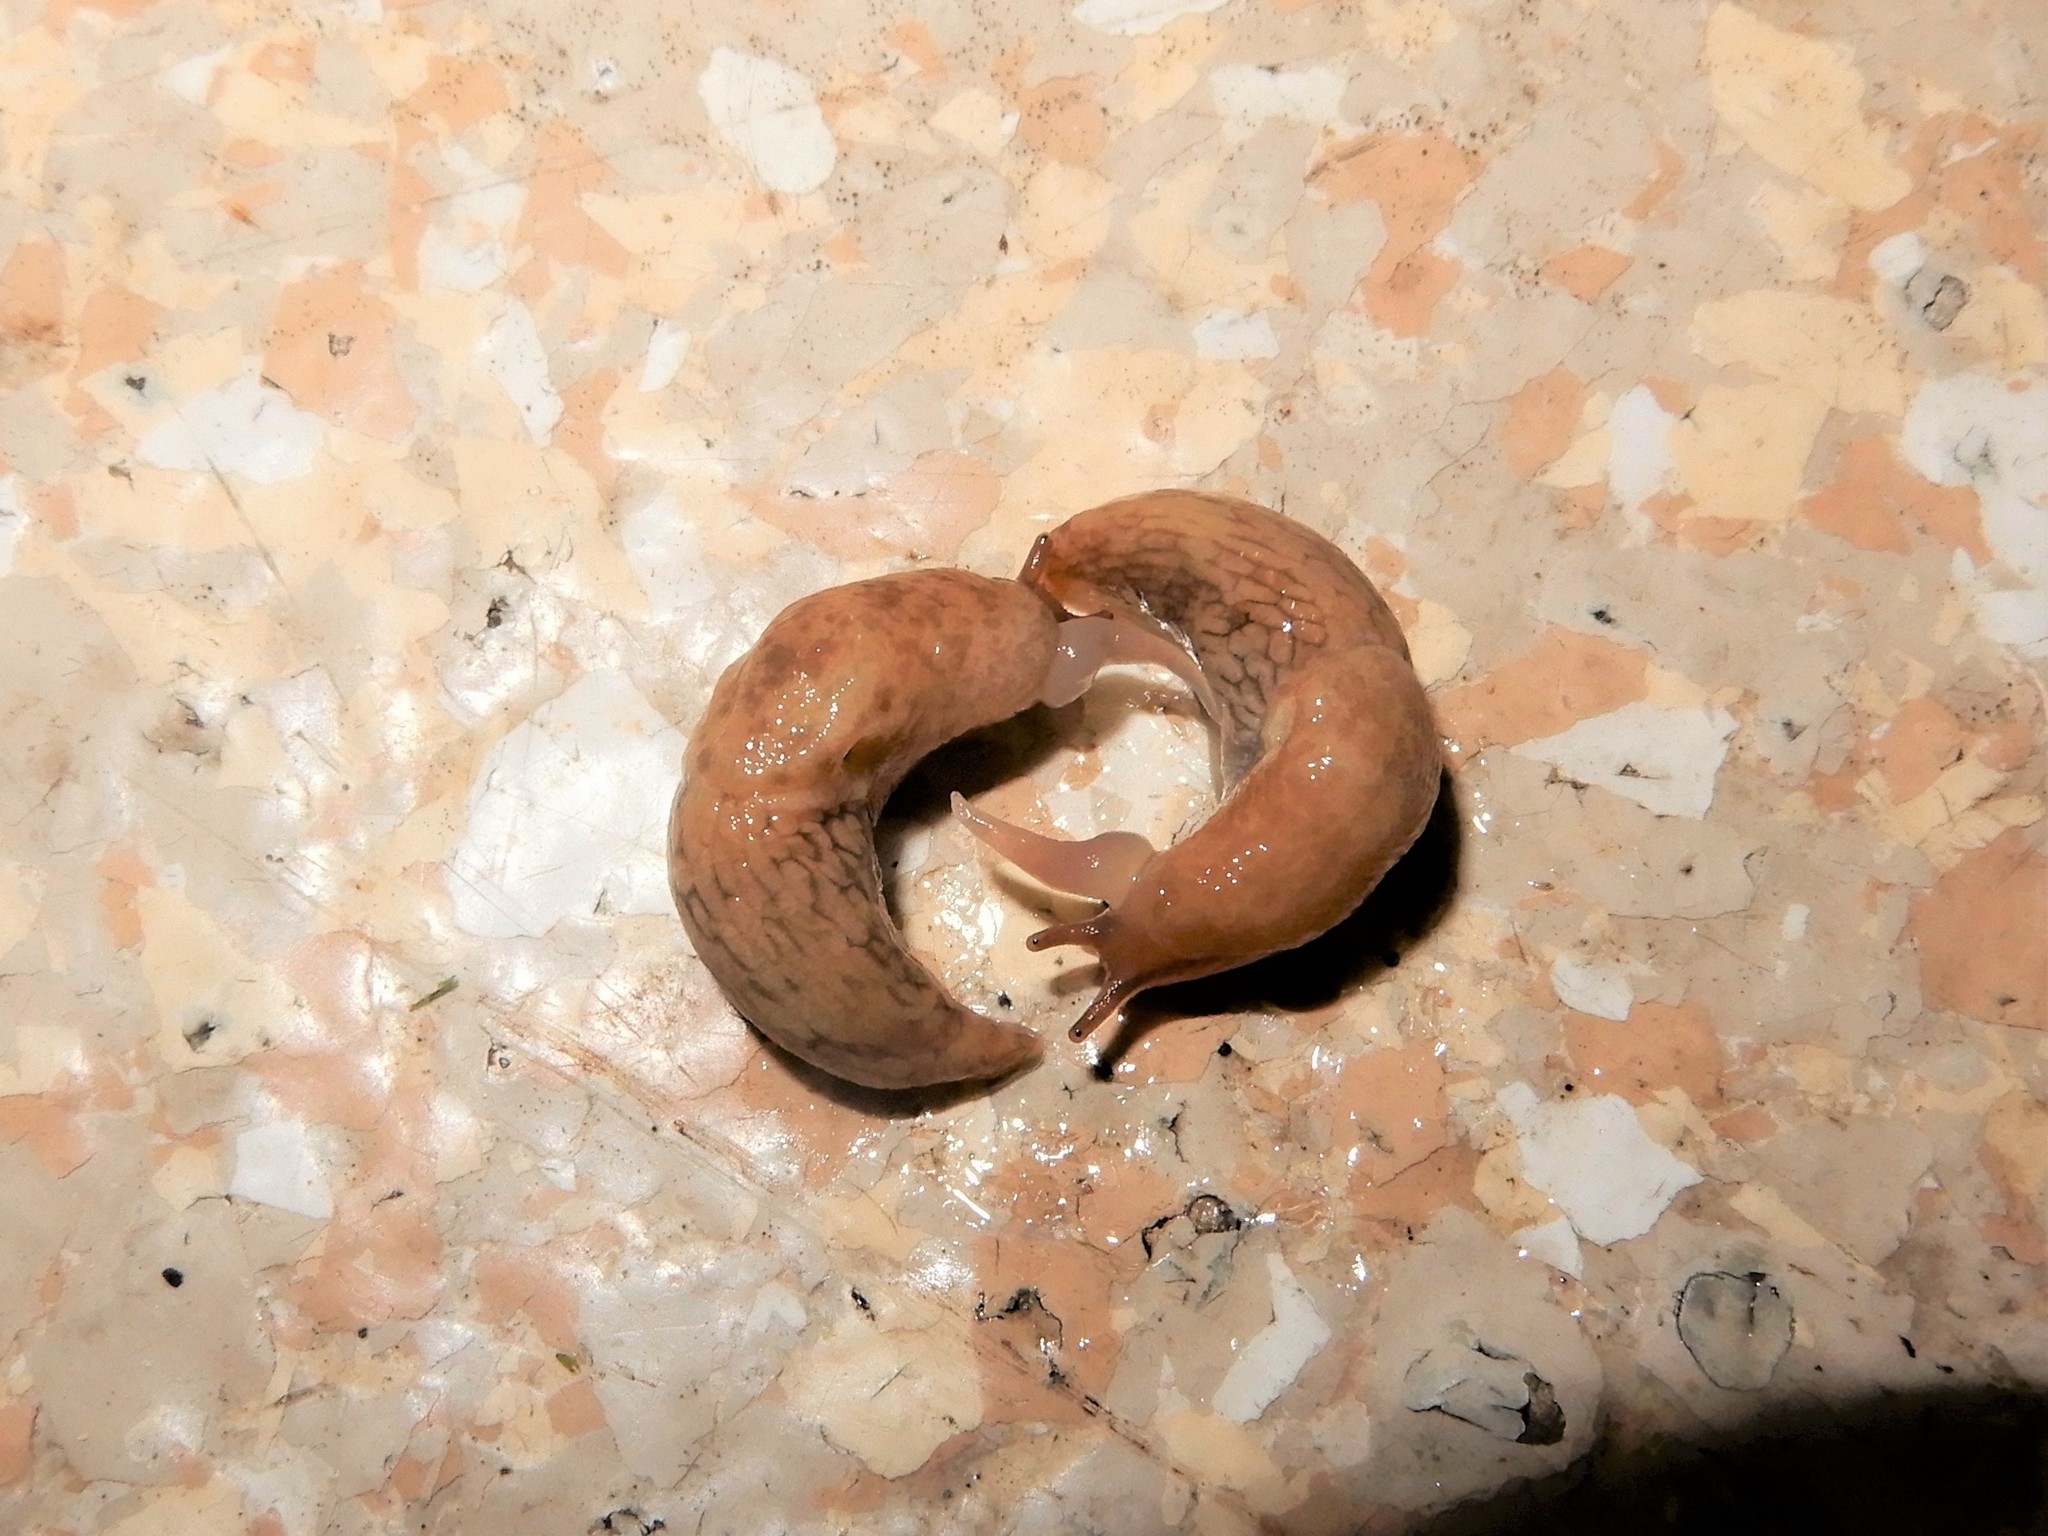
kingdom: Animalia
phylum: Mollusca
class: Gastropoda
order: Stylommatophora
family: Agriolimacidae
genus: Deroceras
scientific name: Deroceras reticulatum
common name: Gray field slug
